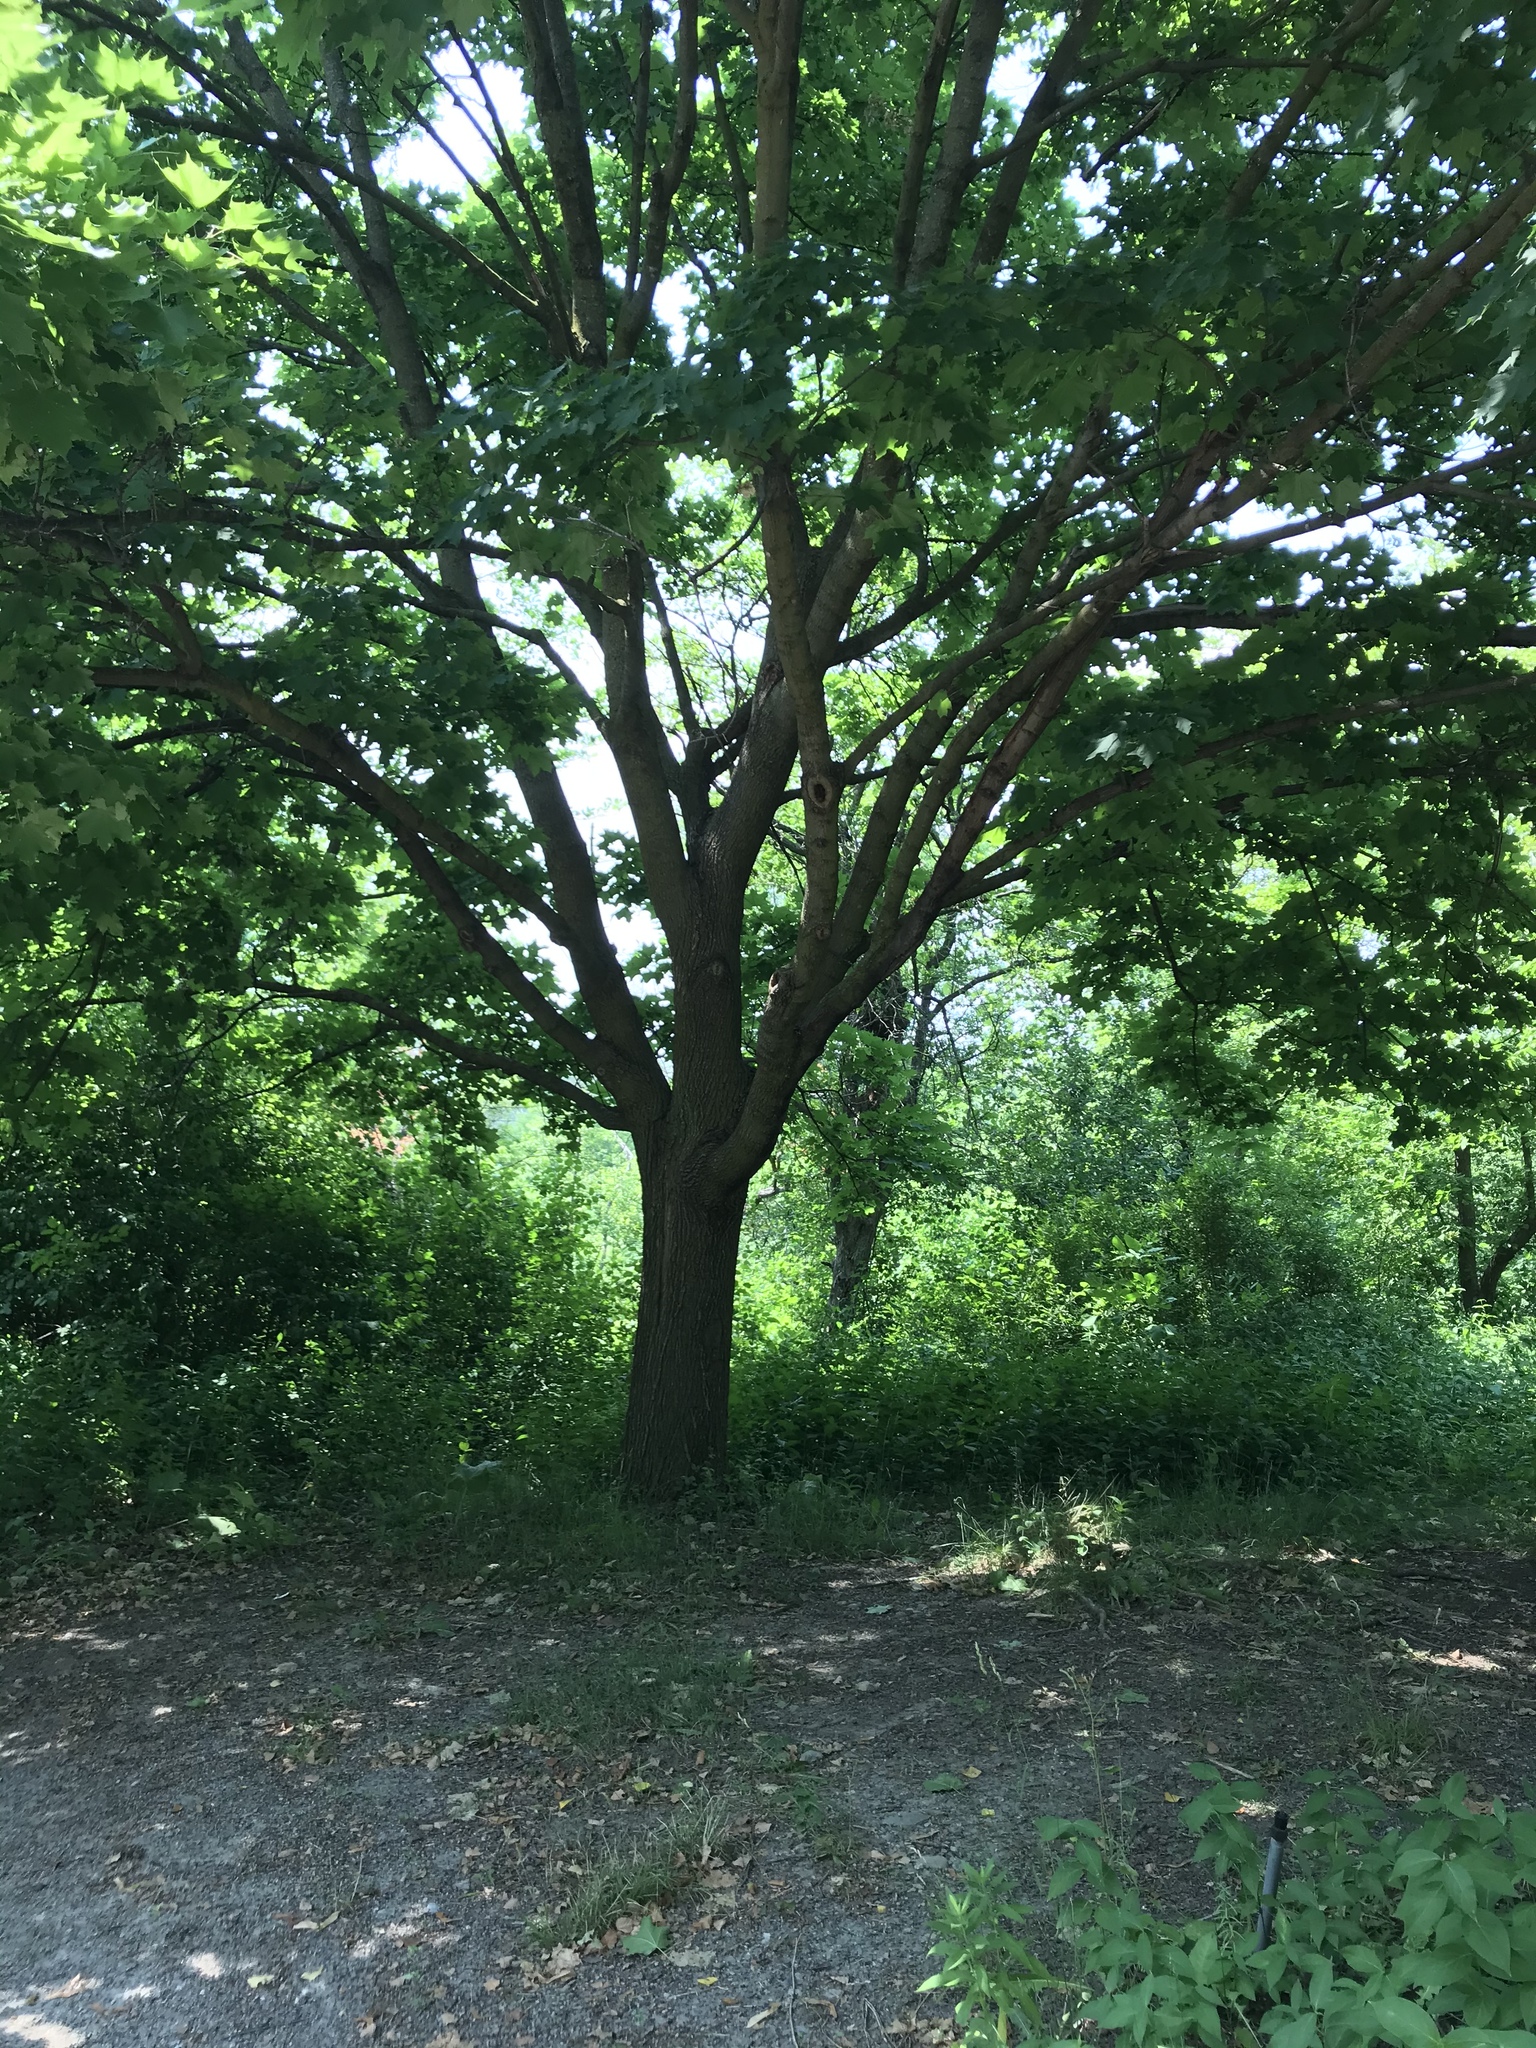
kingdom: Plantae
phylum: Tracheophyta
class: Magnoliopsida
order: Sapindales
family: Sapindaceae
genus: Acer
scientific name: Acer platanoides
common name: Norway maple
